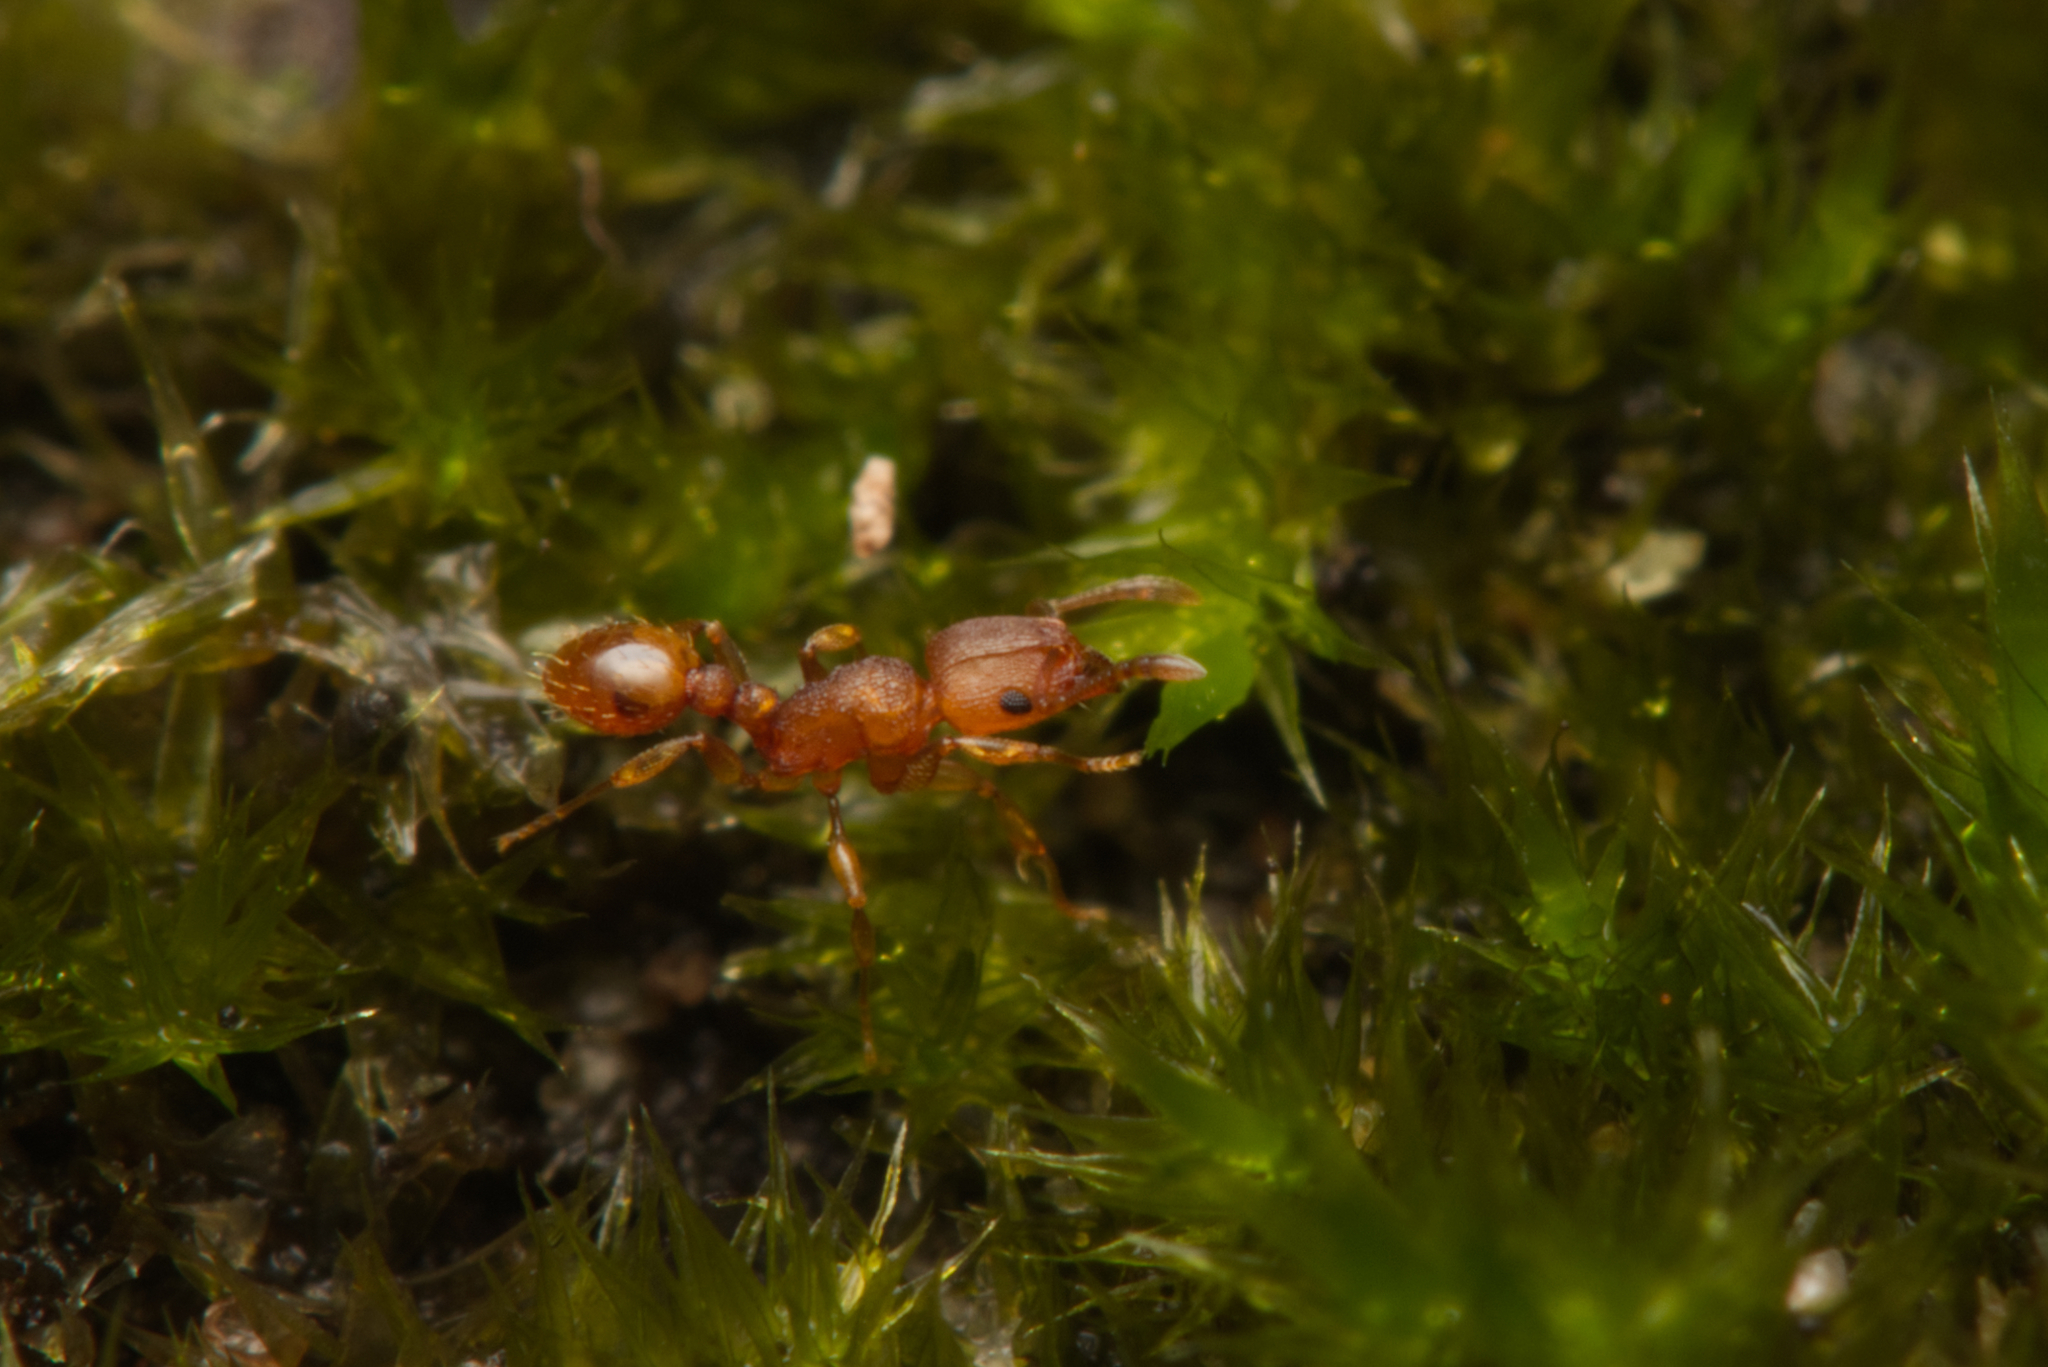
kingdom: Animalia
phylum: Arthropoda
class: Insecta
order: Hymenoptera
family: Formicidae
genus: Tetramorium
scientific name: Tetramorium simillimum
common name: Ant
